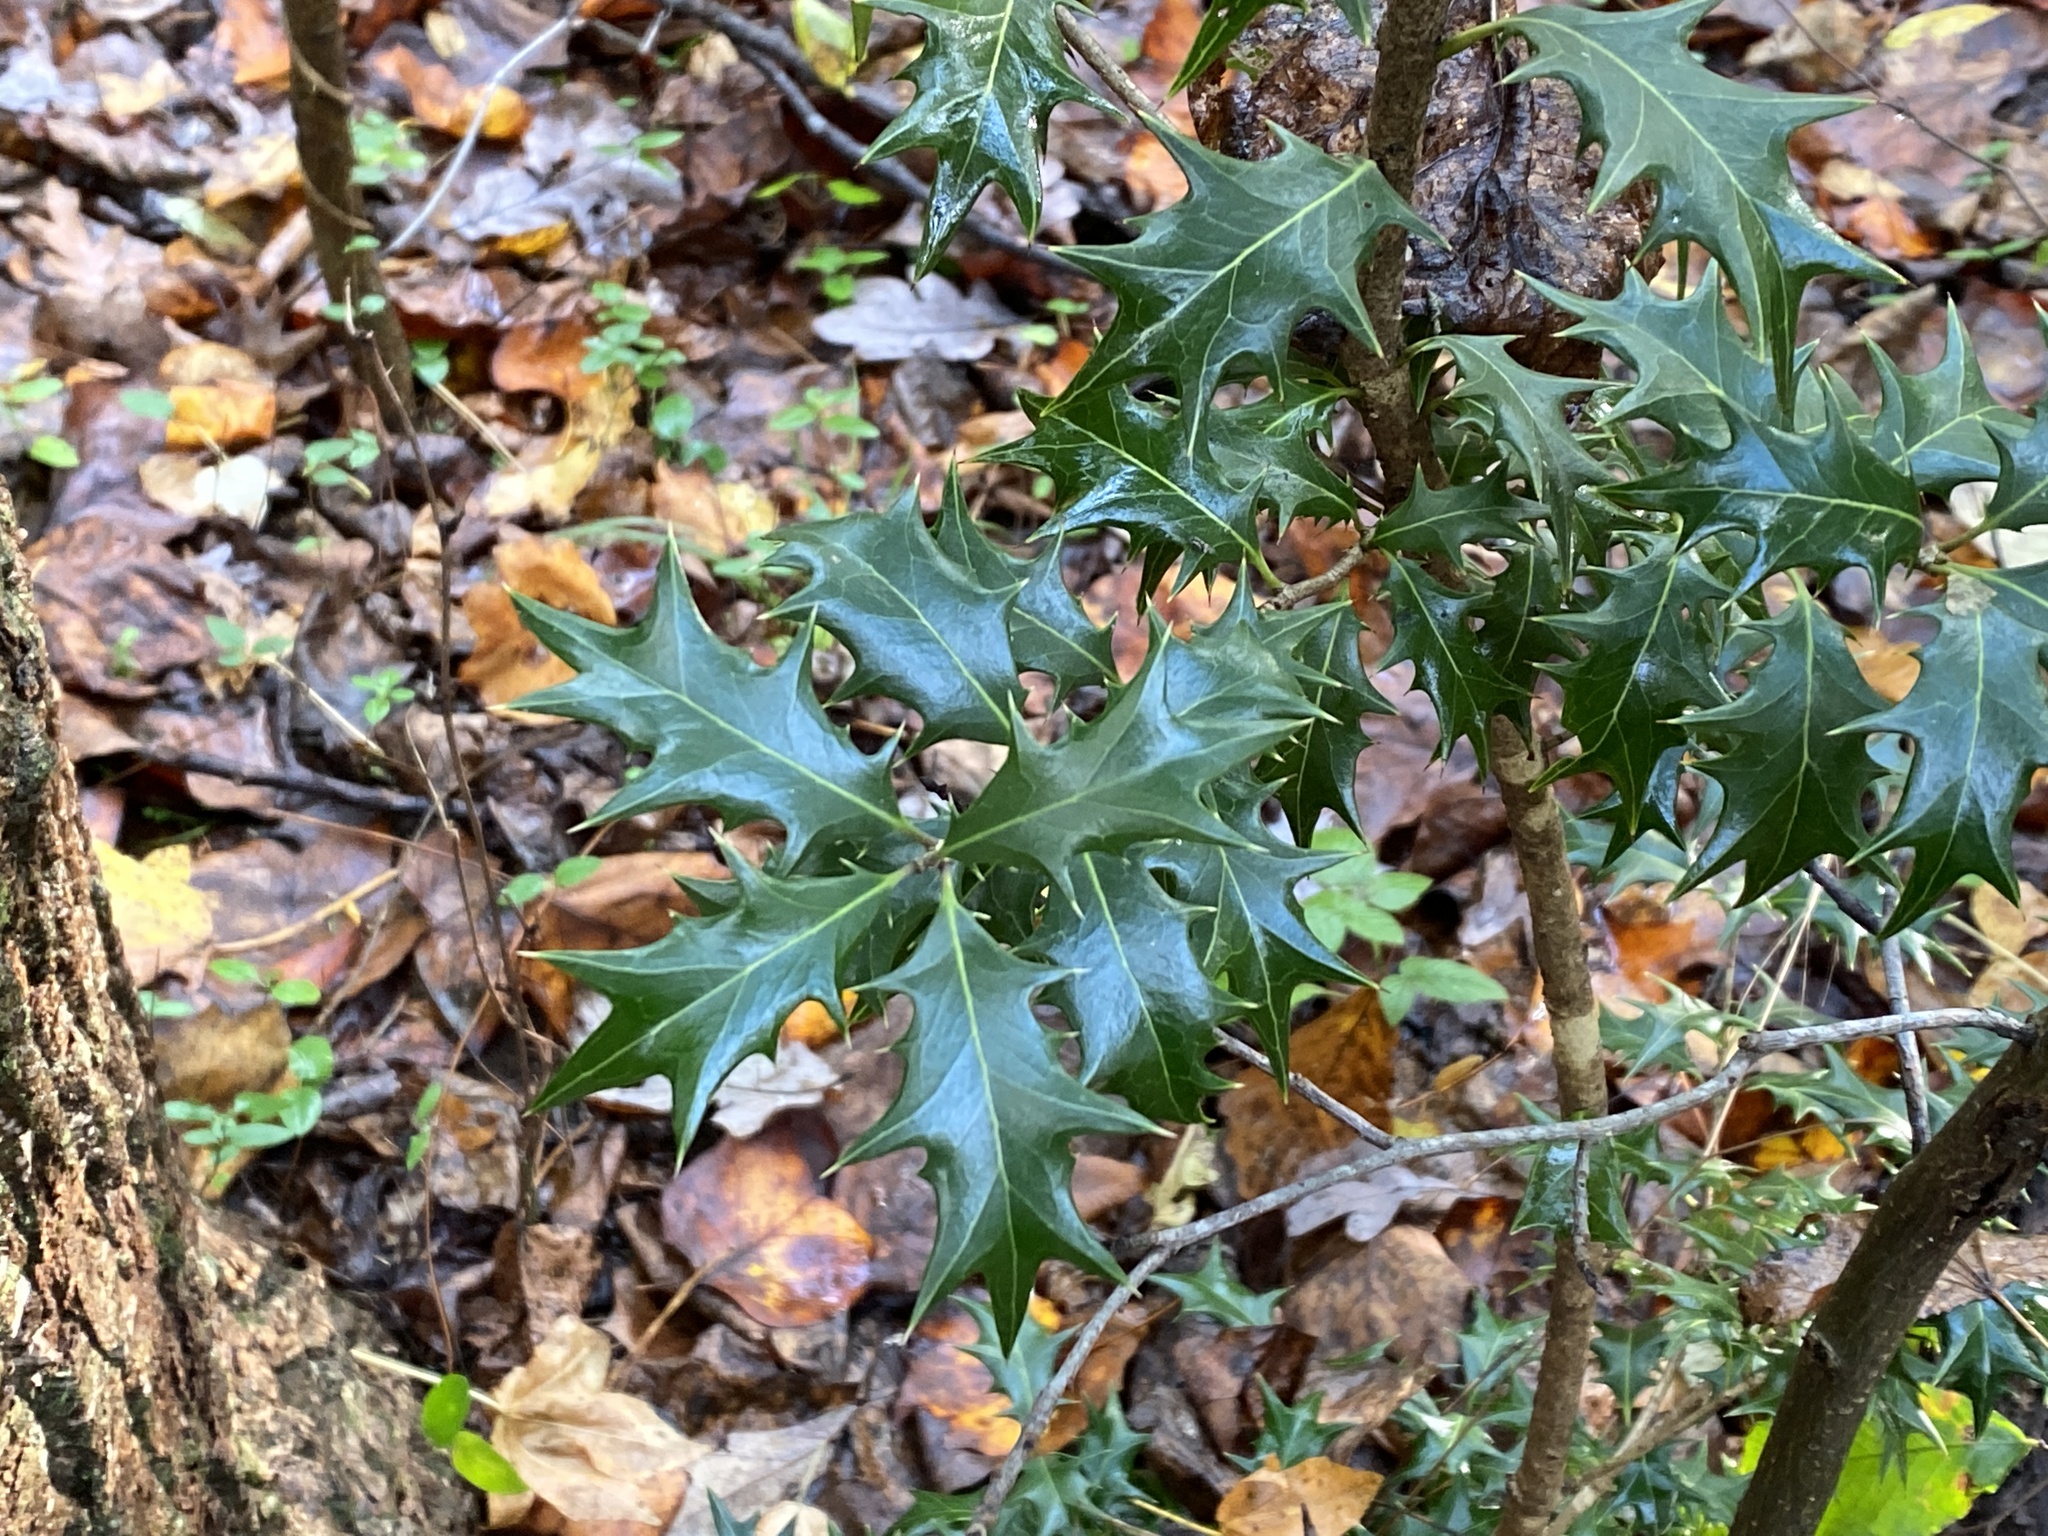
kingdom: Plantae
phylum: Tracheophyta
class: Magnoliopsida
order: Lamiales
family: Oleaceae
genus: Osmanthus
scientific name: Osmanthus heterophyllus
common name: Holly osmanthus
